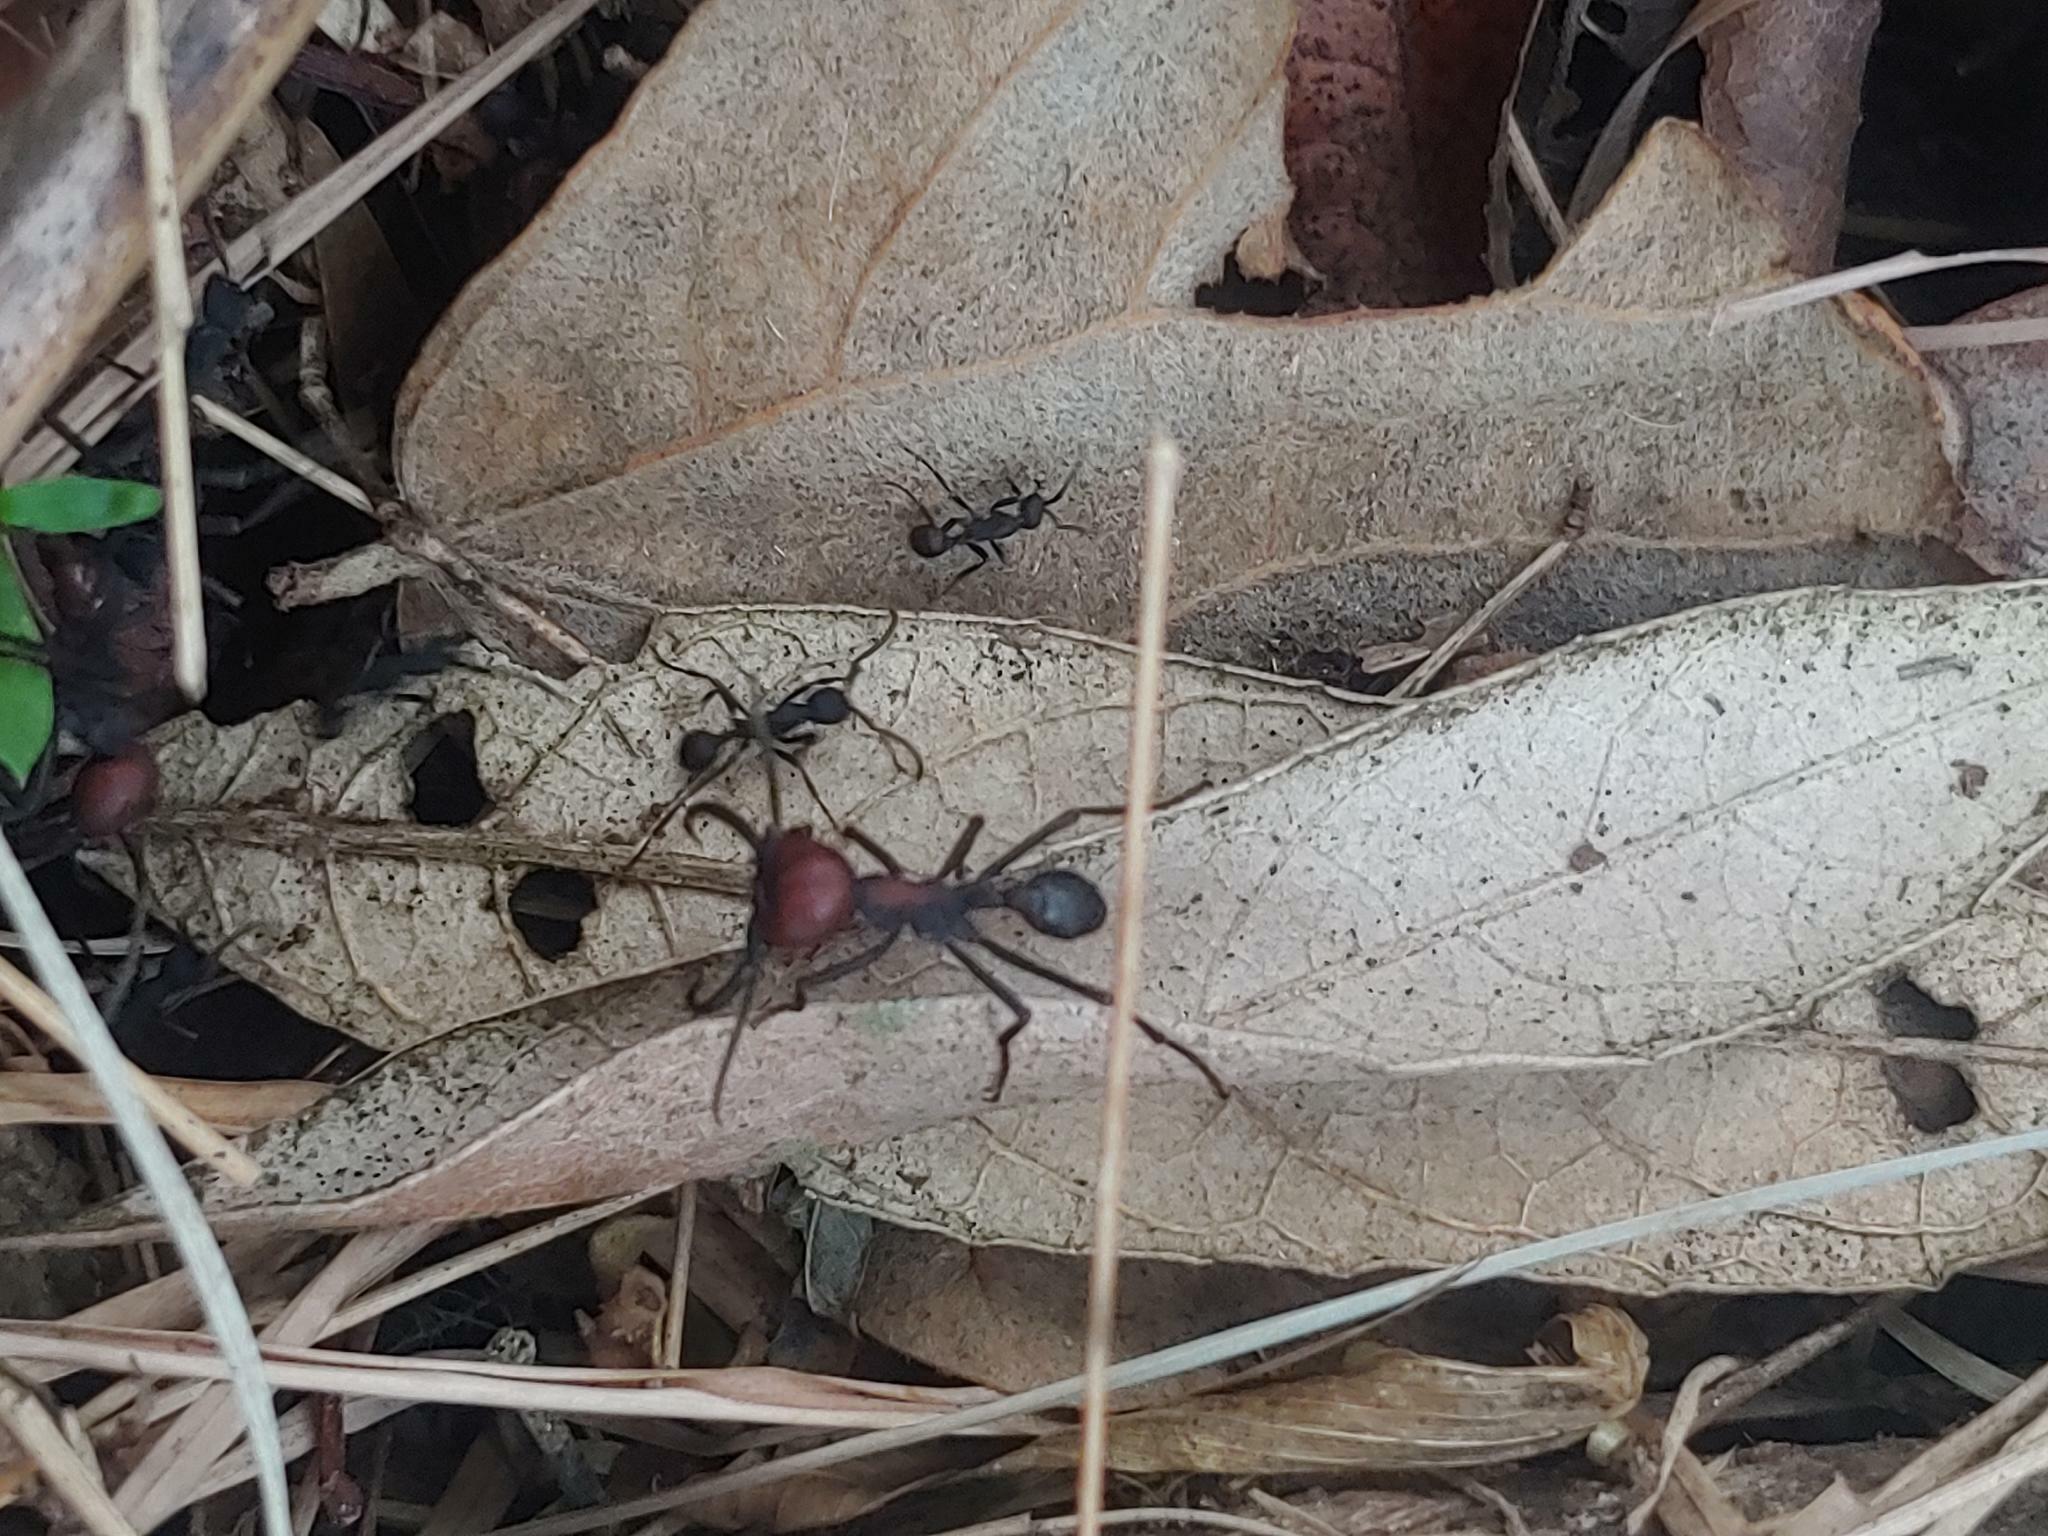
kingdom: Animalia
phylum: Arthropoda
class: Insecta
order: Hymenoptera
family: Formicidae
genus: Eciton
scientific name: Eciton quadriglume
